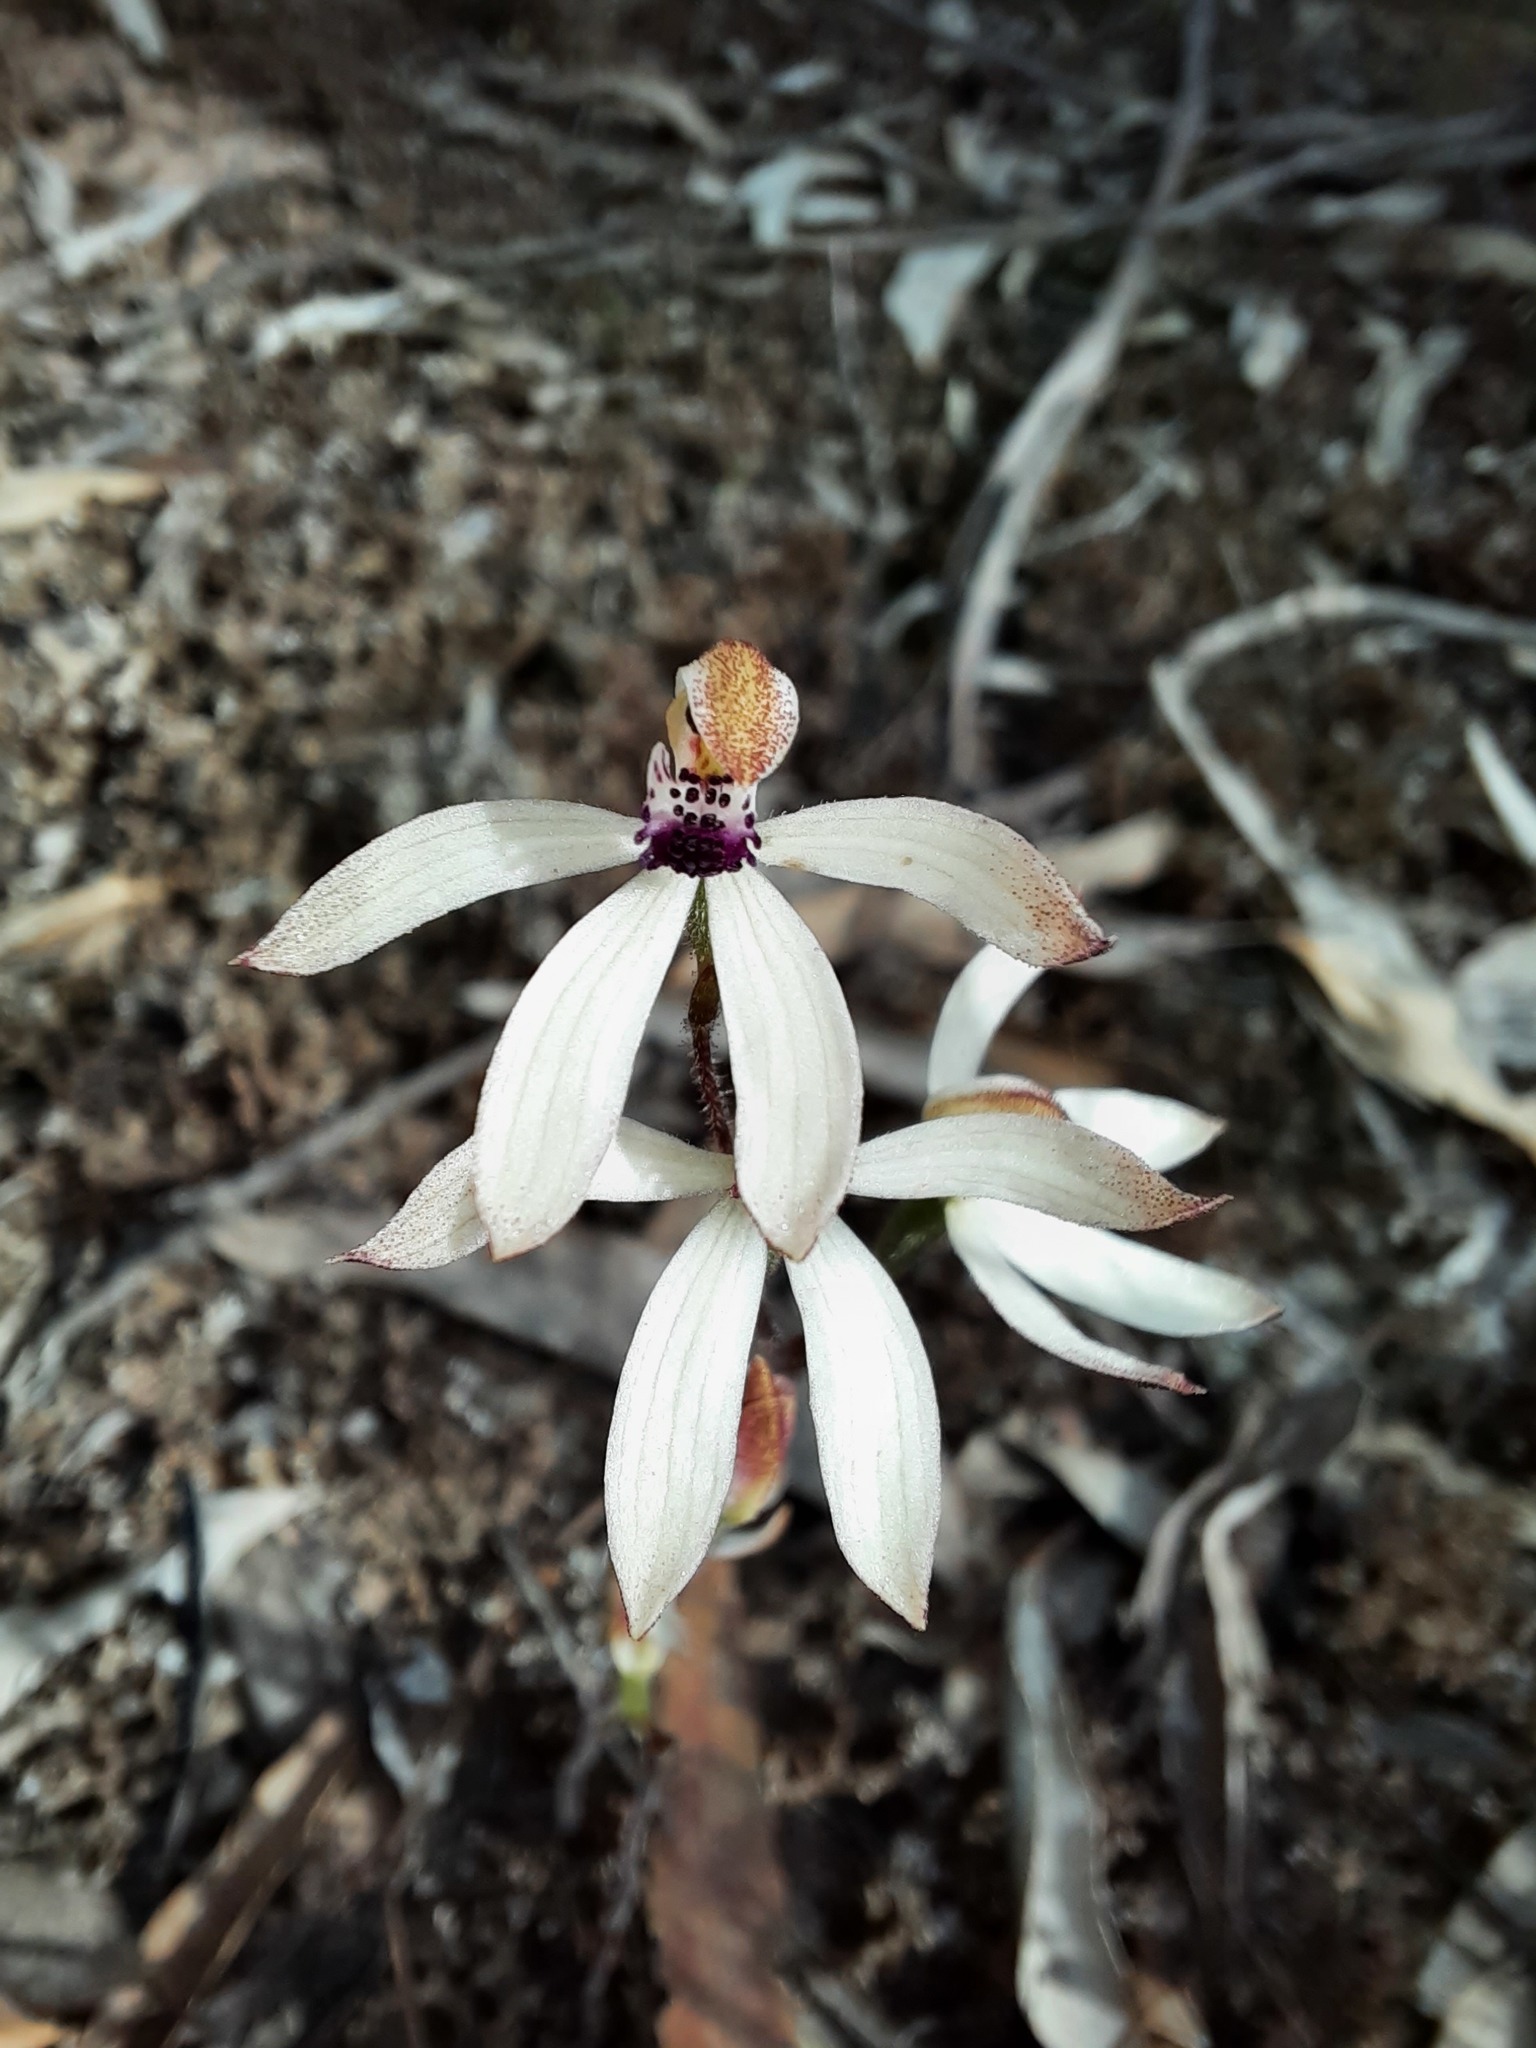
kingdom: Plantae
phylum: Tracheophyta
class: Liliopsida
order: Asparagales
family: Orchidaceae
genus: Caladenia
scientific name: Caladenia cucullata
